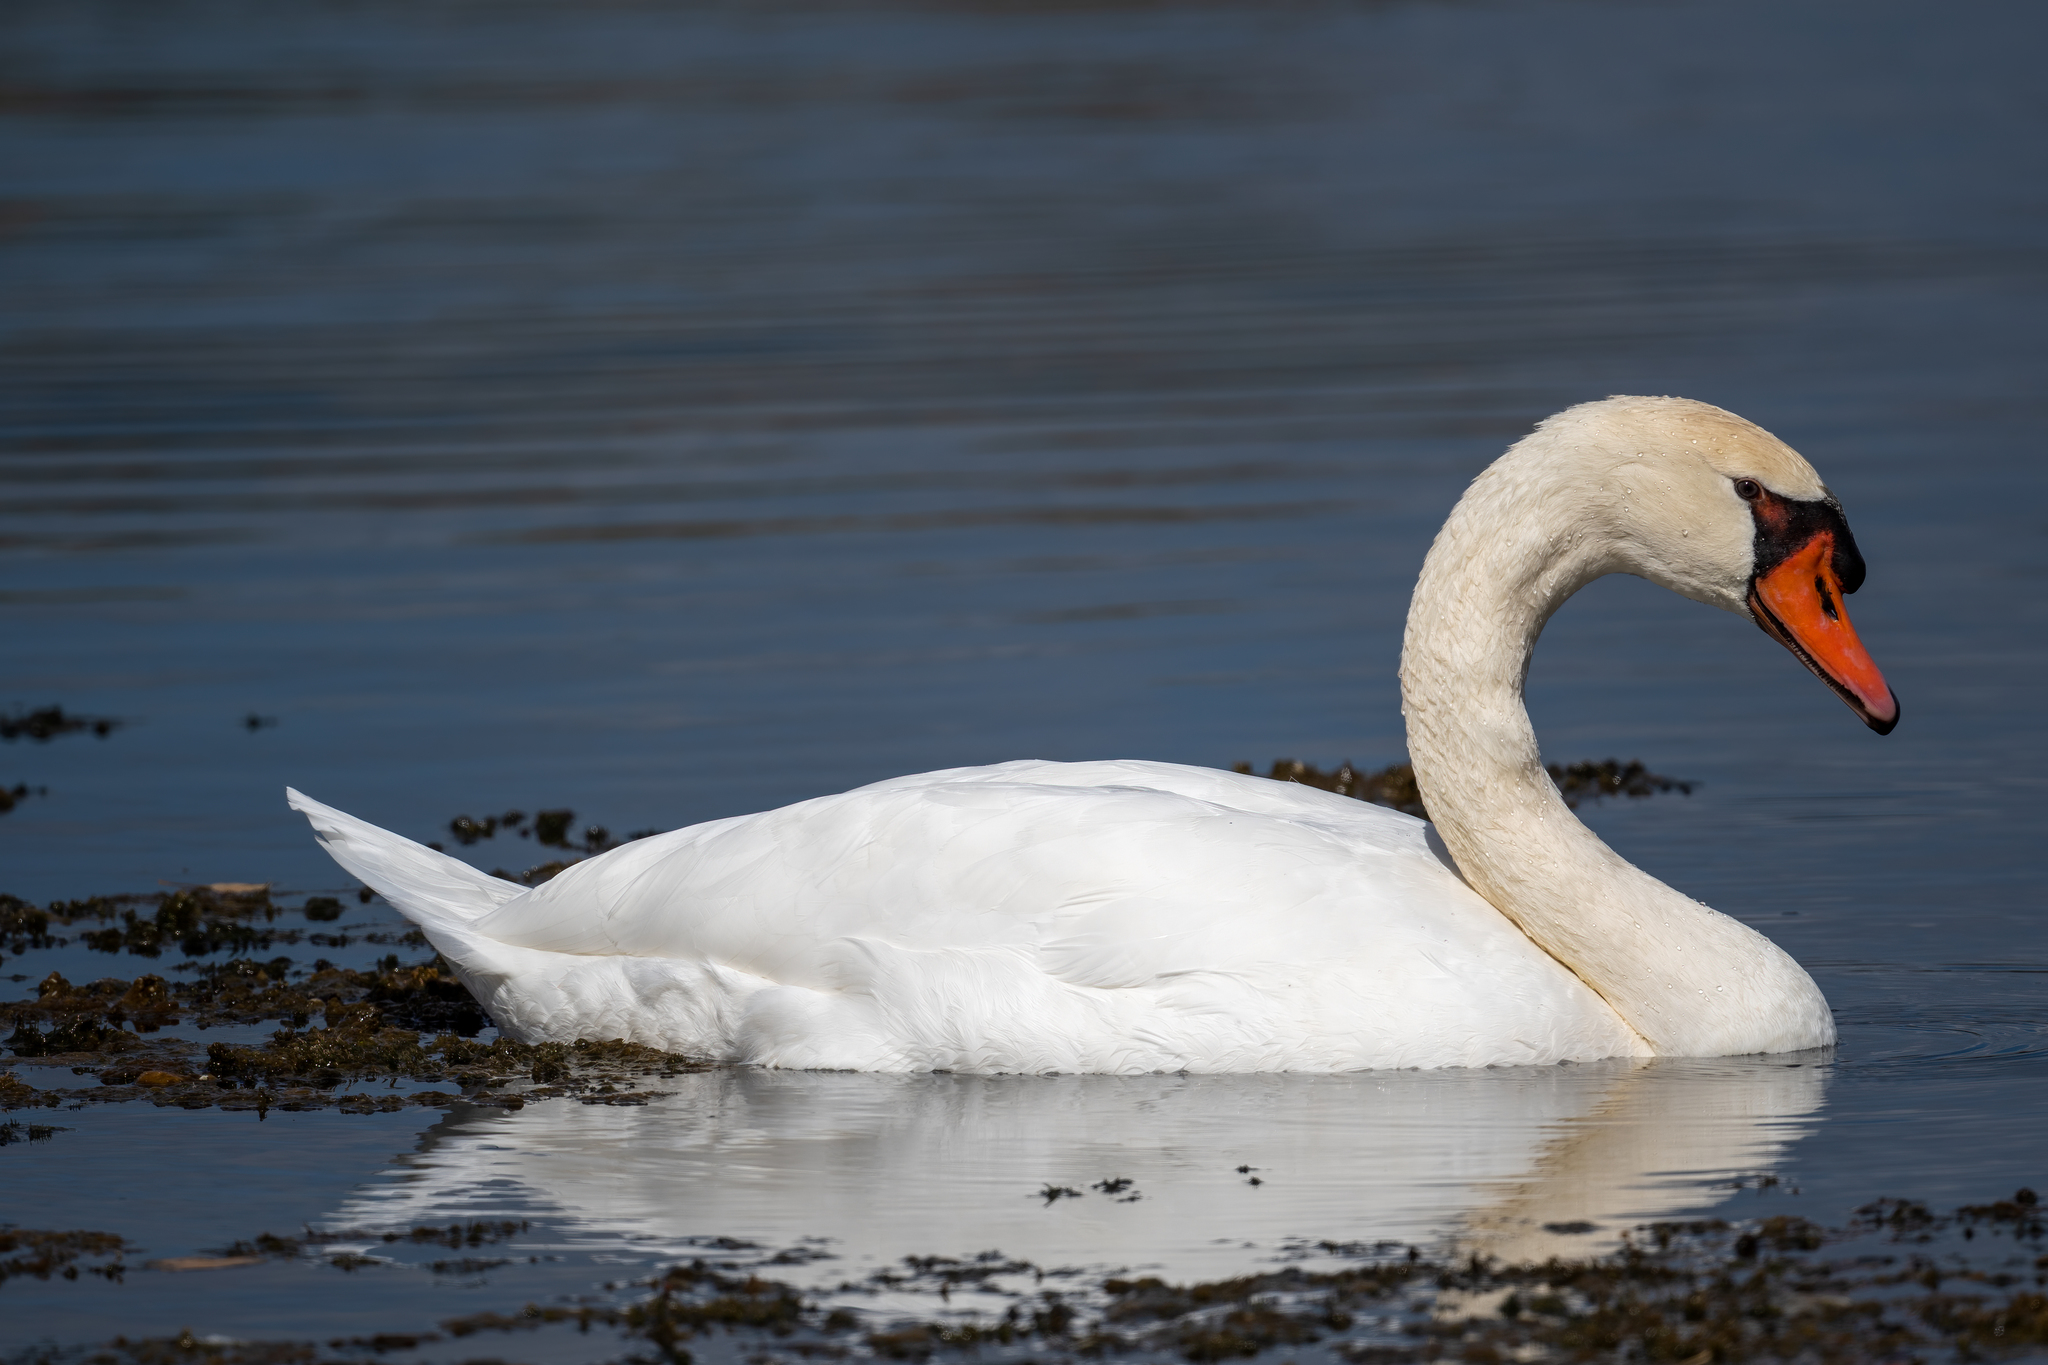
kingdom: Animalia
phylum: Chordata
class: Aves
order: Anseriformes
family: Anatidae
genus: Cygnus
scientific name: Cygnus olor
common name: Mute swan
